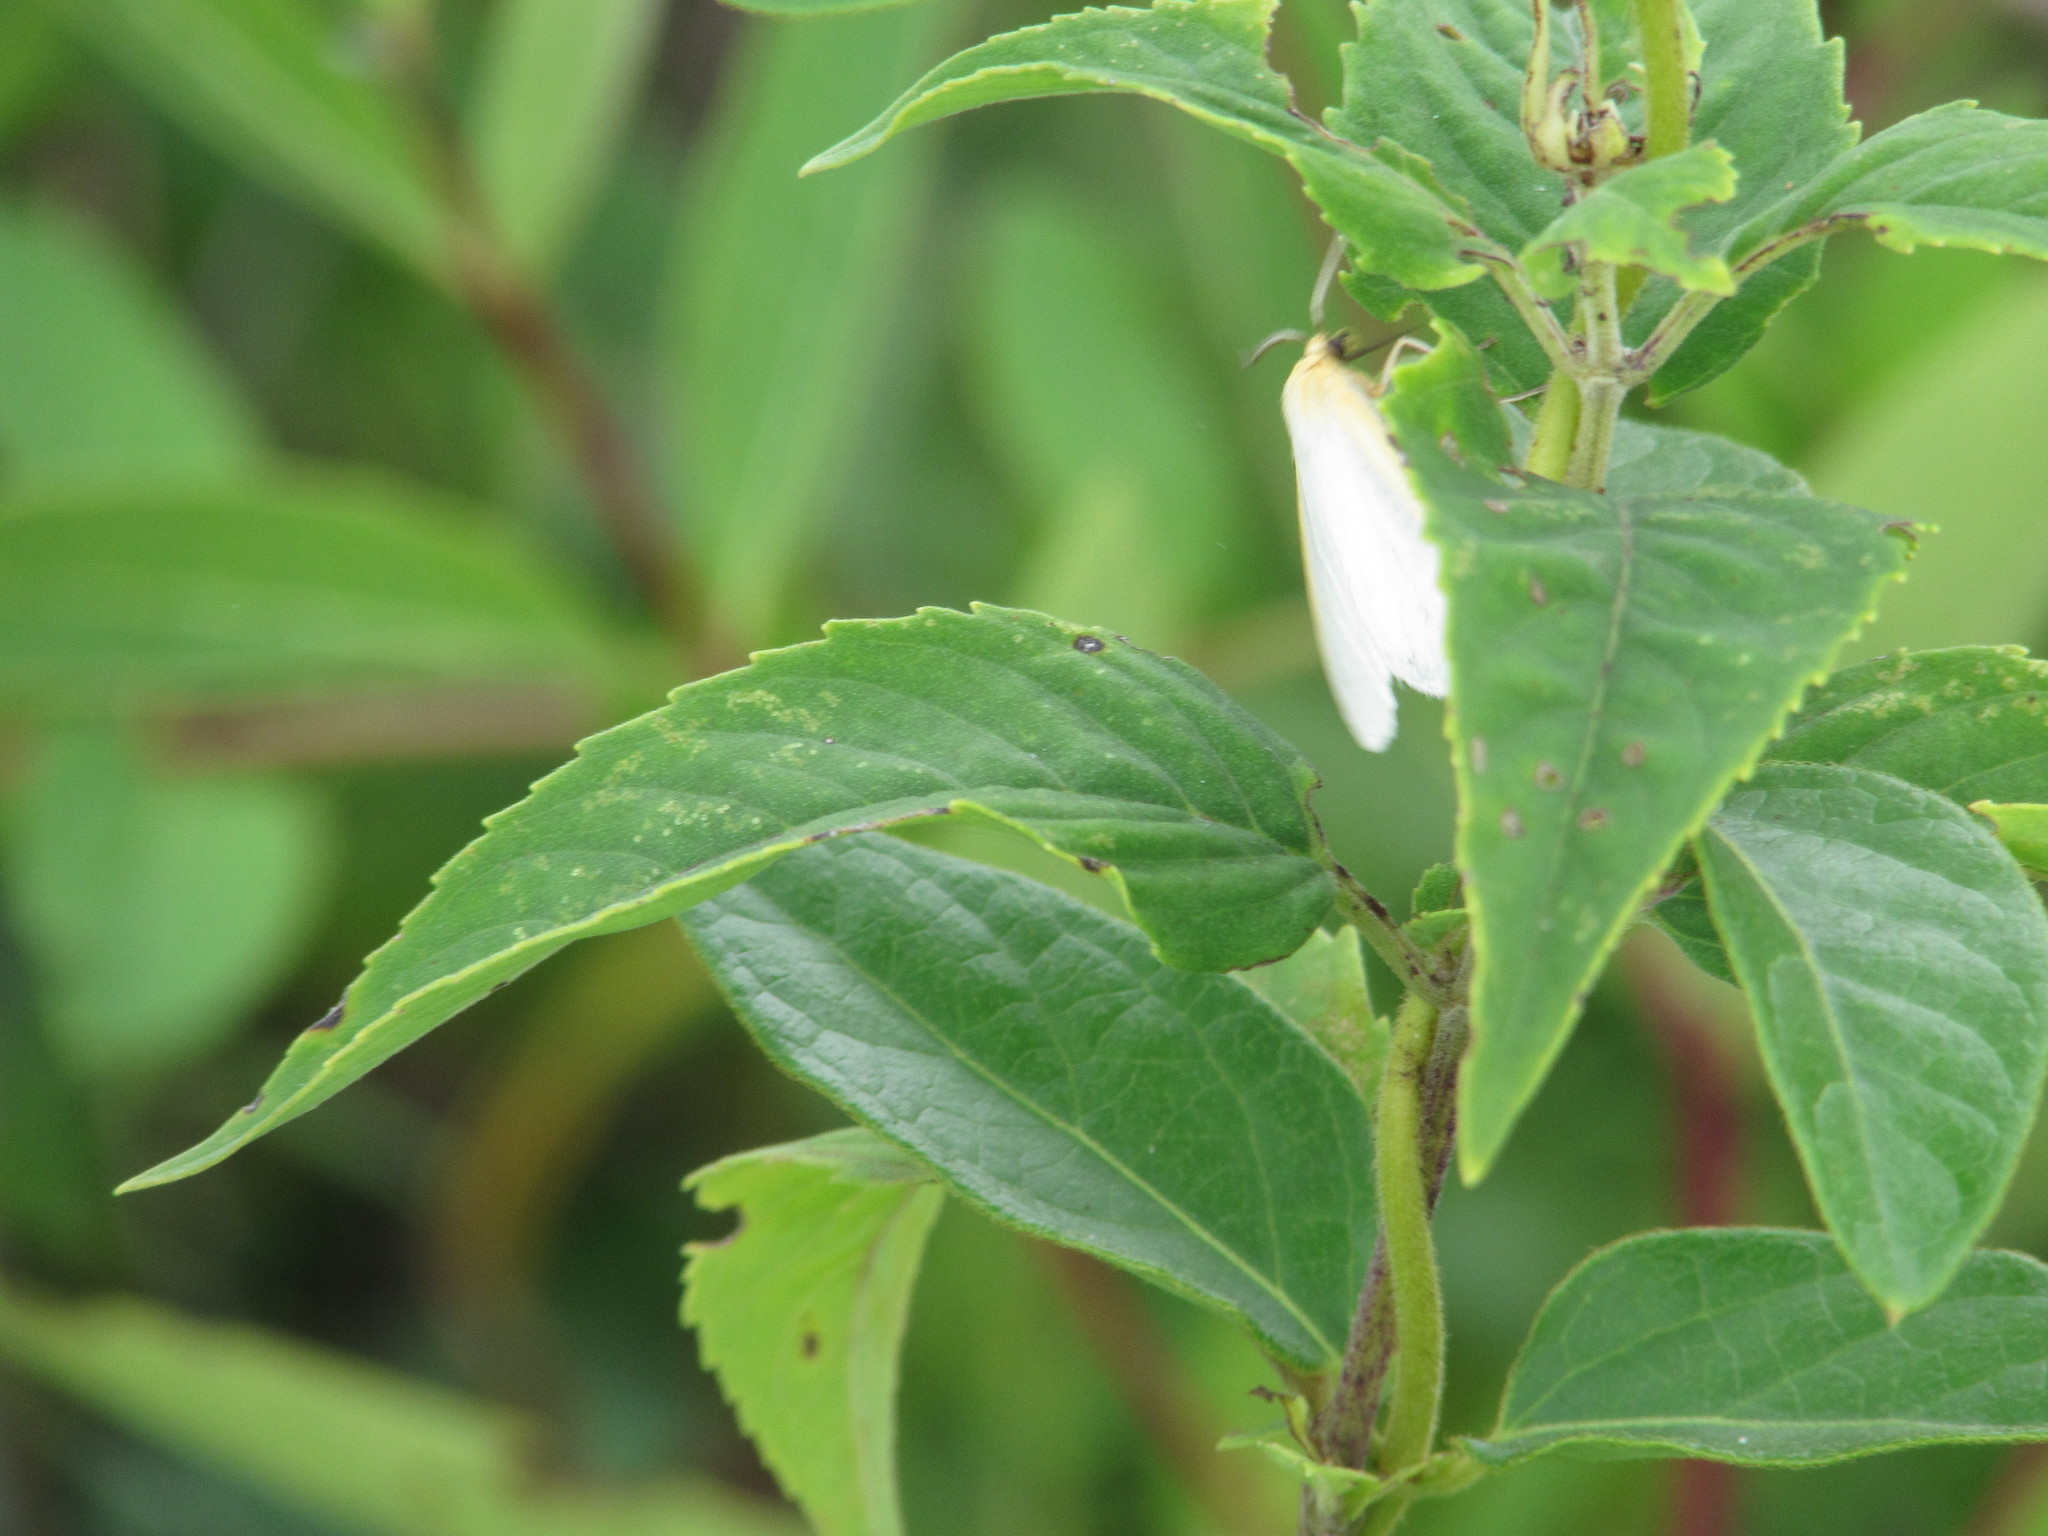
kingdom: Animalia
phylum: Arthropoda
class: Insecta
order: Lepidoptera
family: Erebidae
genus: Cycnia
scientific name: Cycnia tenera
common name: Delicate cycnia moth
